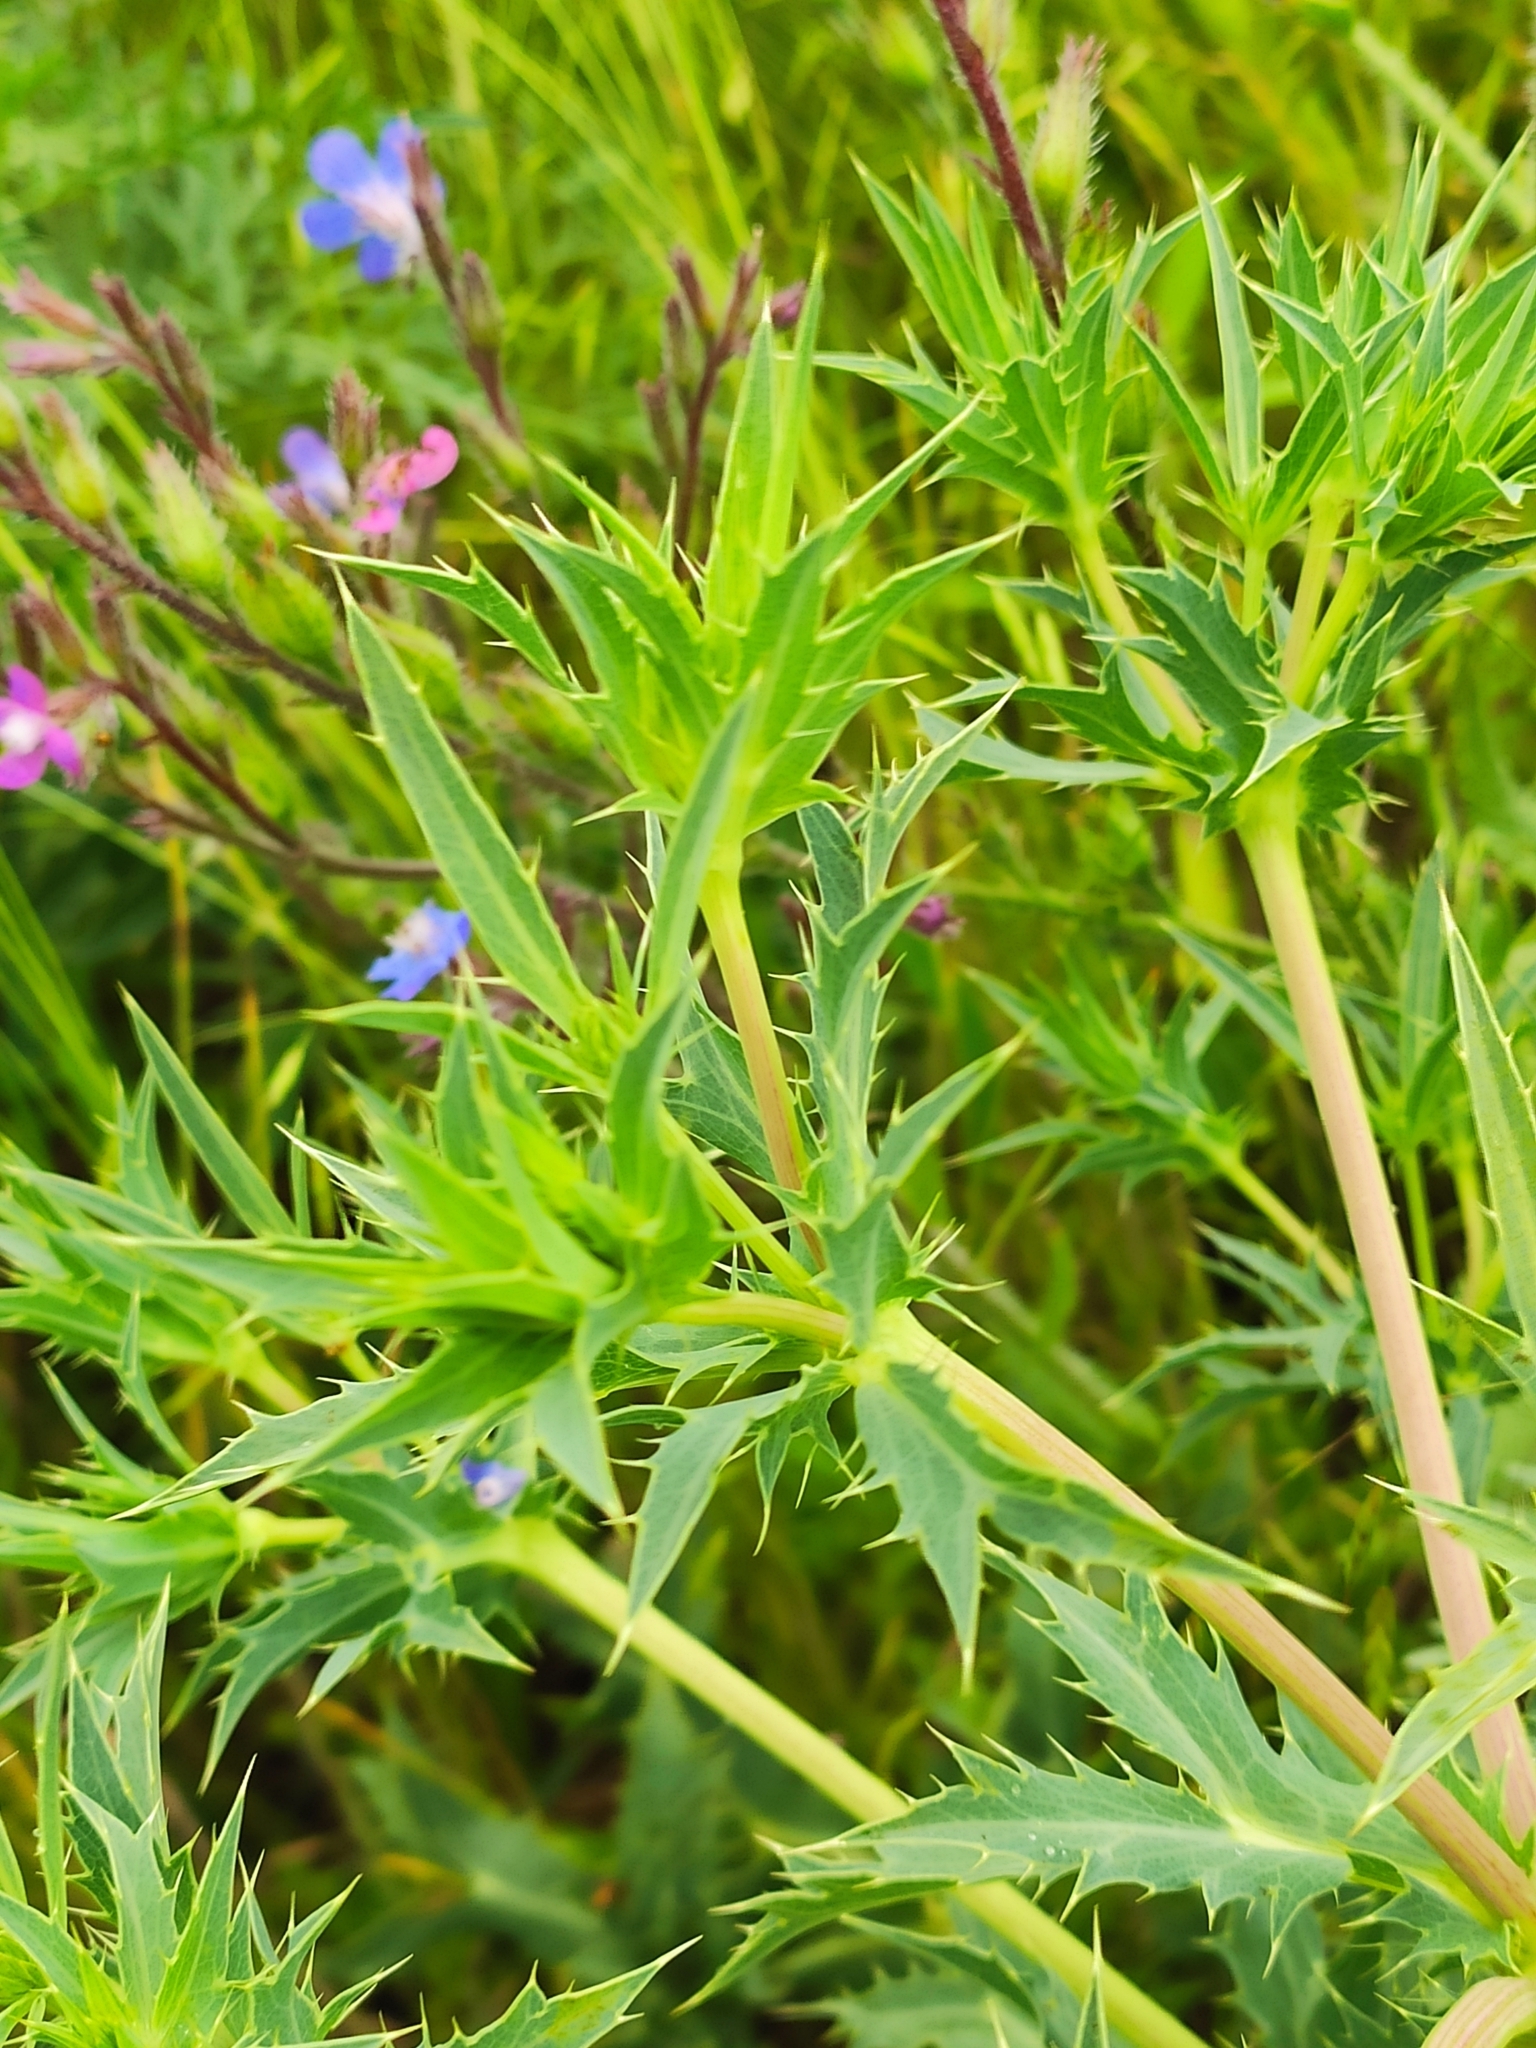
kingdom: Plantae
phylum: Tracheophyta
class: Magnoliopsida
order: Apiales
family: Apiaceae
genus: Eryngium
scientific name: Eryngium campestre
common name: Field eryngo
